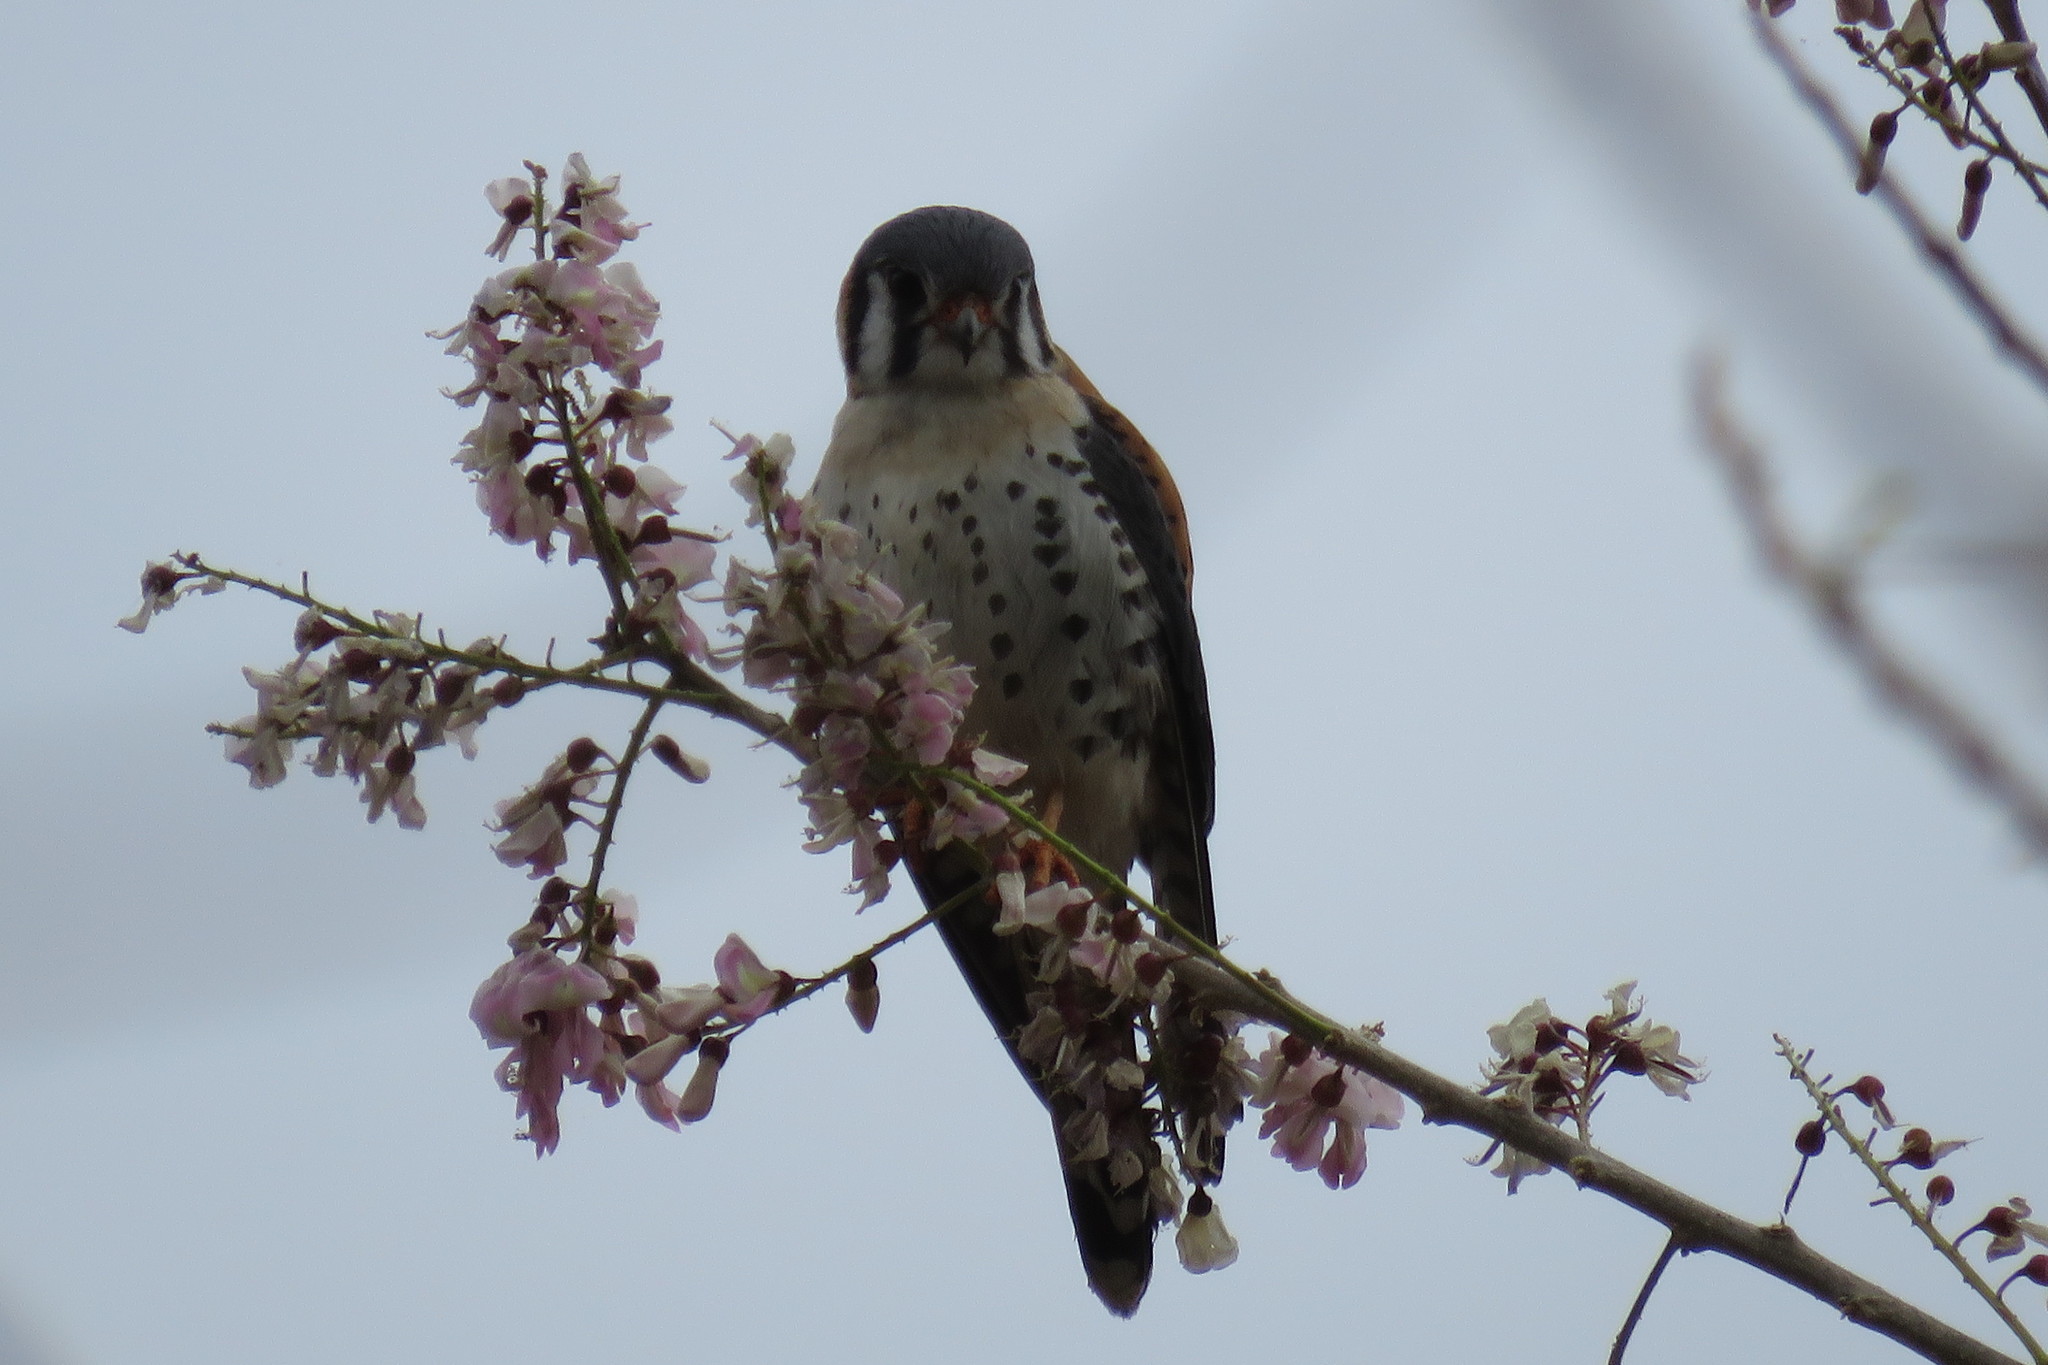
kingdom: Animalia
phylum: Chordata
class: Aves
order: Falconiformes
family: Falconidae
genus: Falco
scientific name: Falco sparverius
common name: American kestrel
